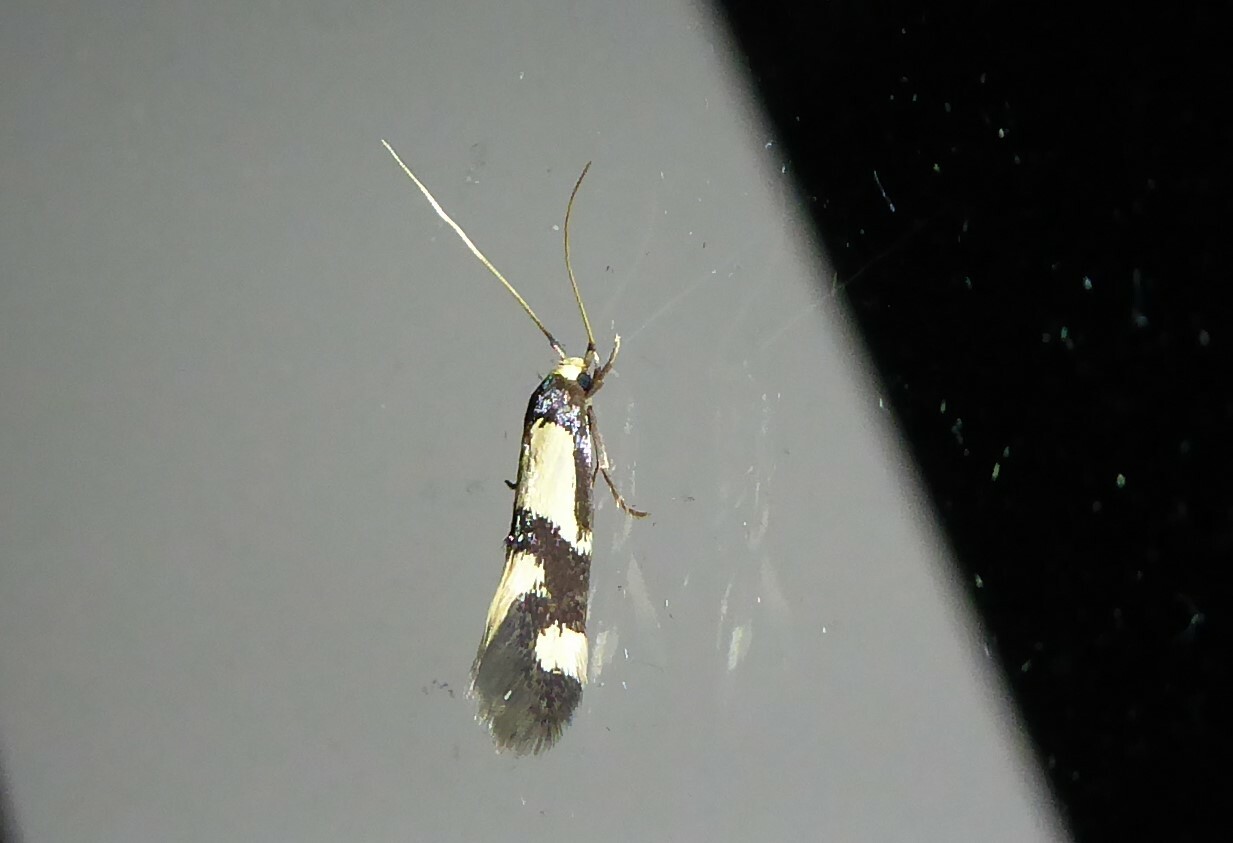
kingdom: Animalia
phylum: Arthropoda
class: Insecta
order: Lepidoptera
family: Tineidae
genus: Opogona
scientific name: Opogona comptella
